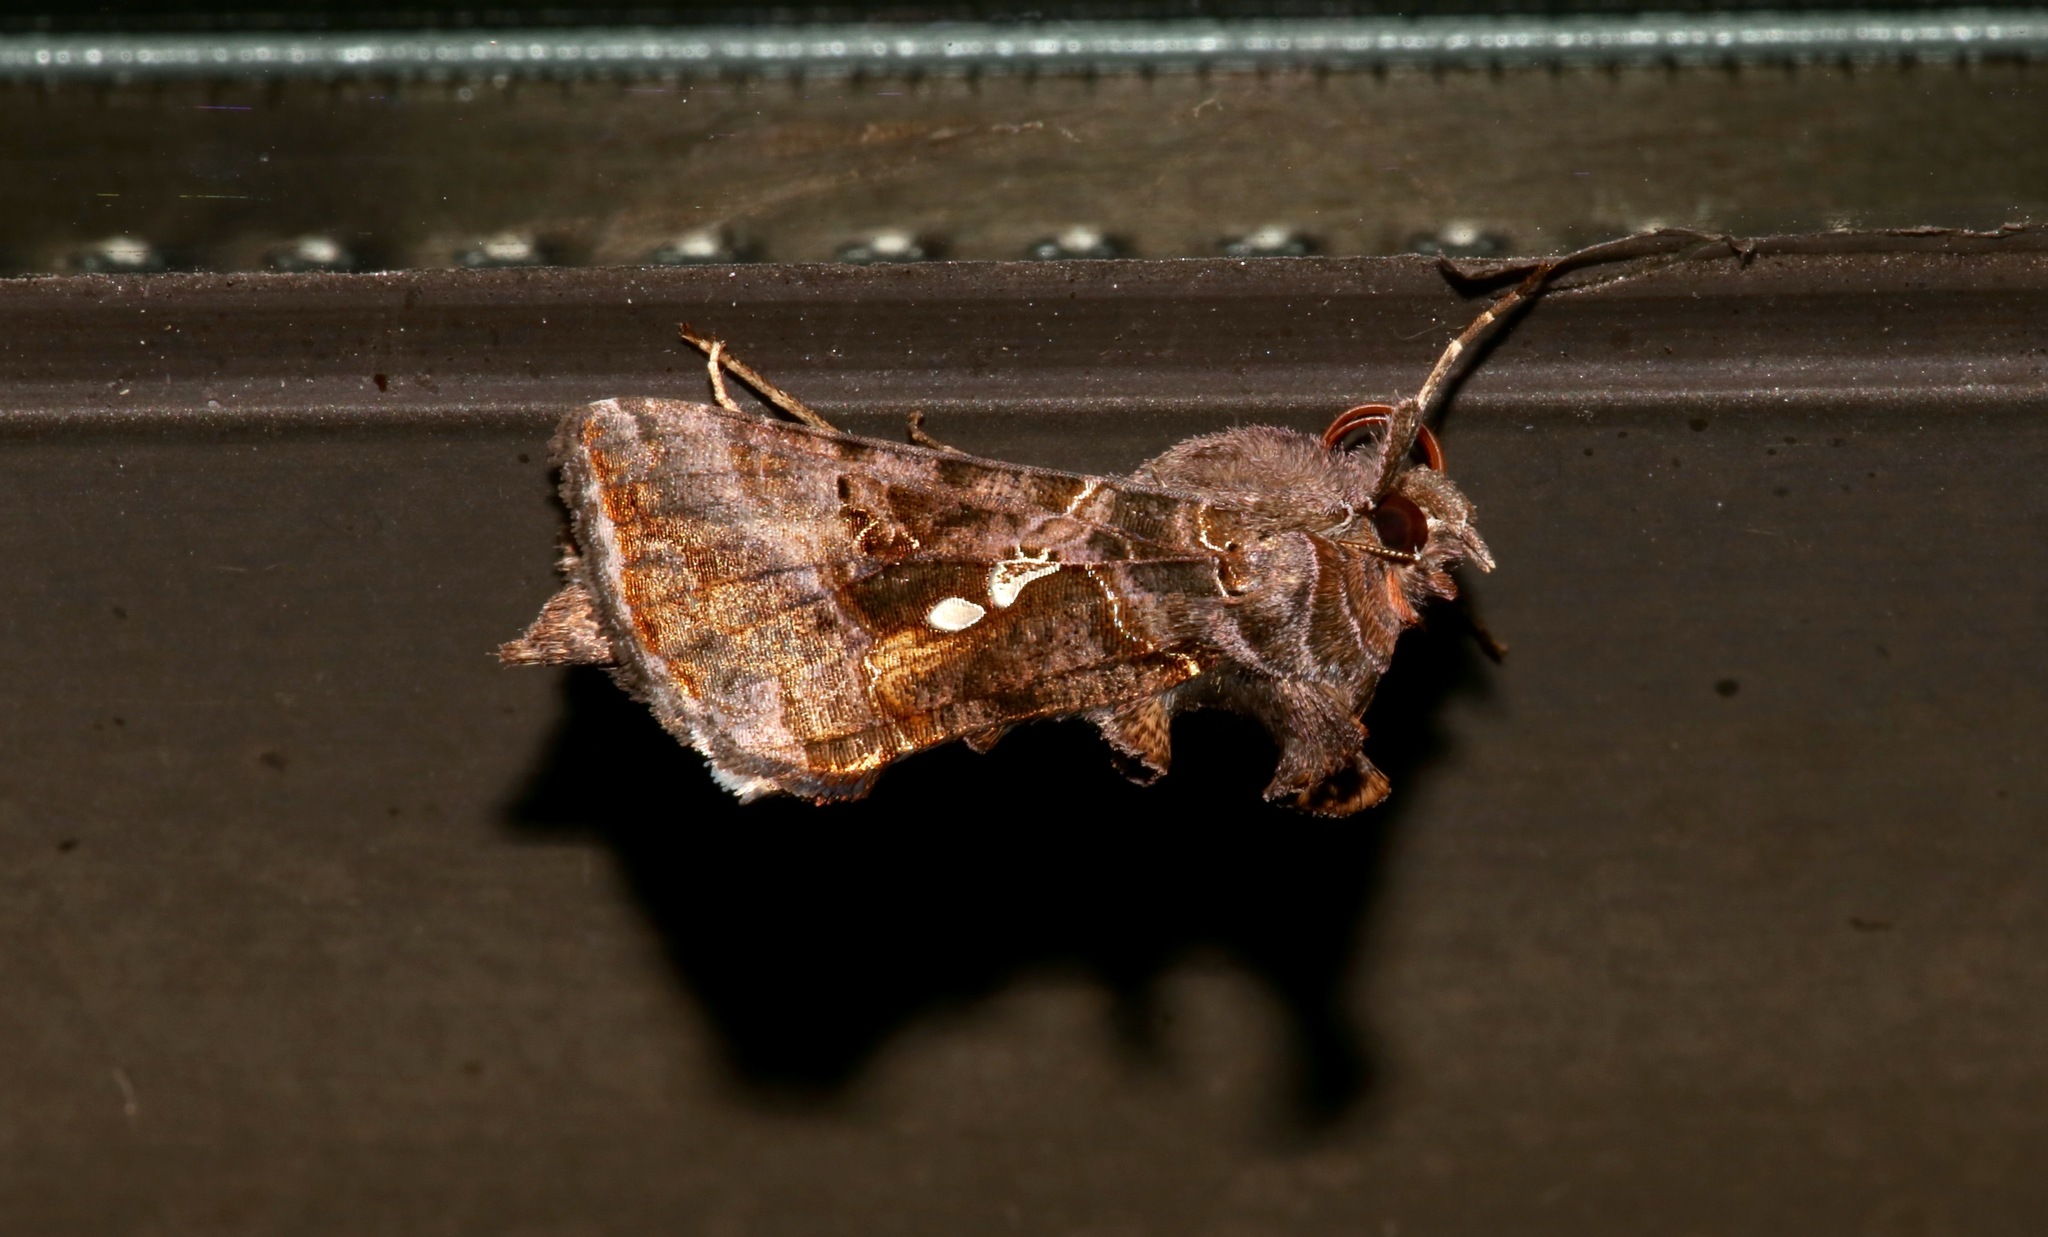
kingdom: Animalia
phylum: Arthropoda
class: Insecta
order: Lepidoptera
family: Noctuidae
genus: Autographa
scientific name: Autographa precationis
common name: Common looper moth
